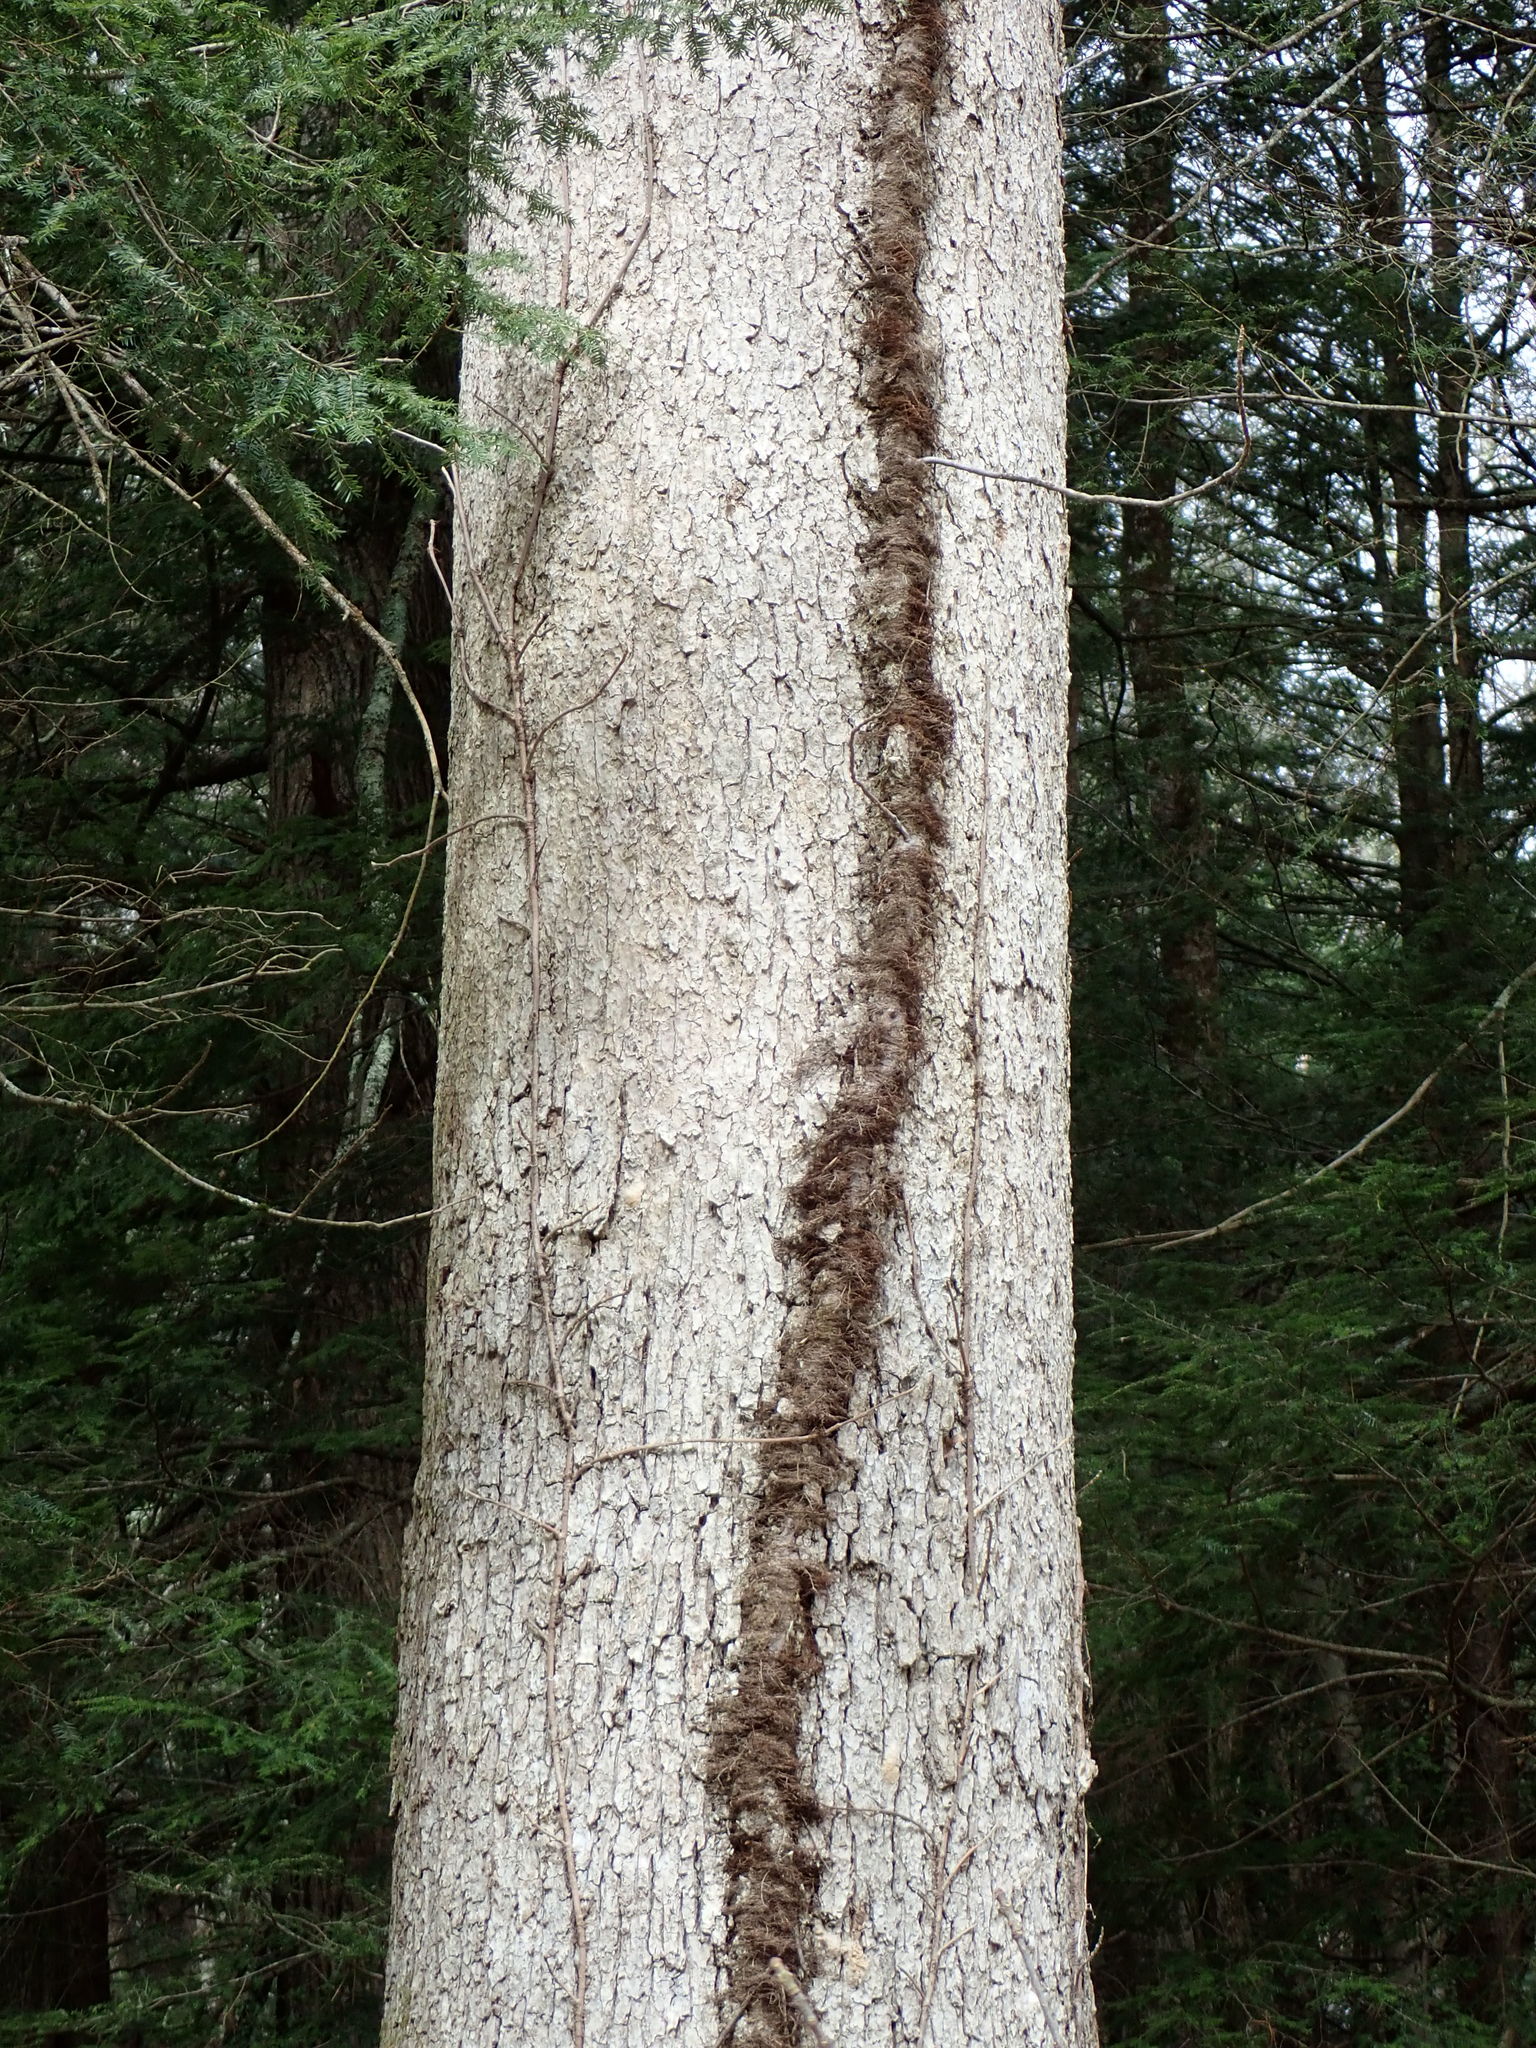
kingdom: Plantae
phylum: Tracheophyta
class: Magnoliopsida
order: Sapindales
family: Anacardiaceae
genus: Toxicodendron
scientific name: Toxicodendron radicans
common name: Poison ivy
